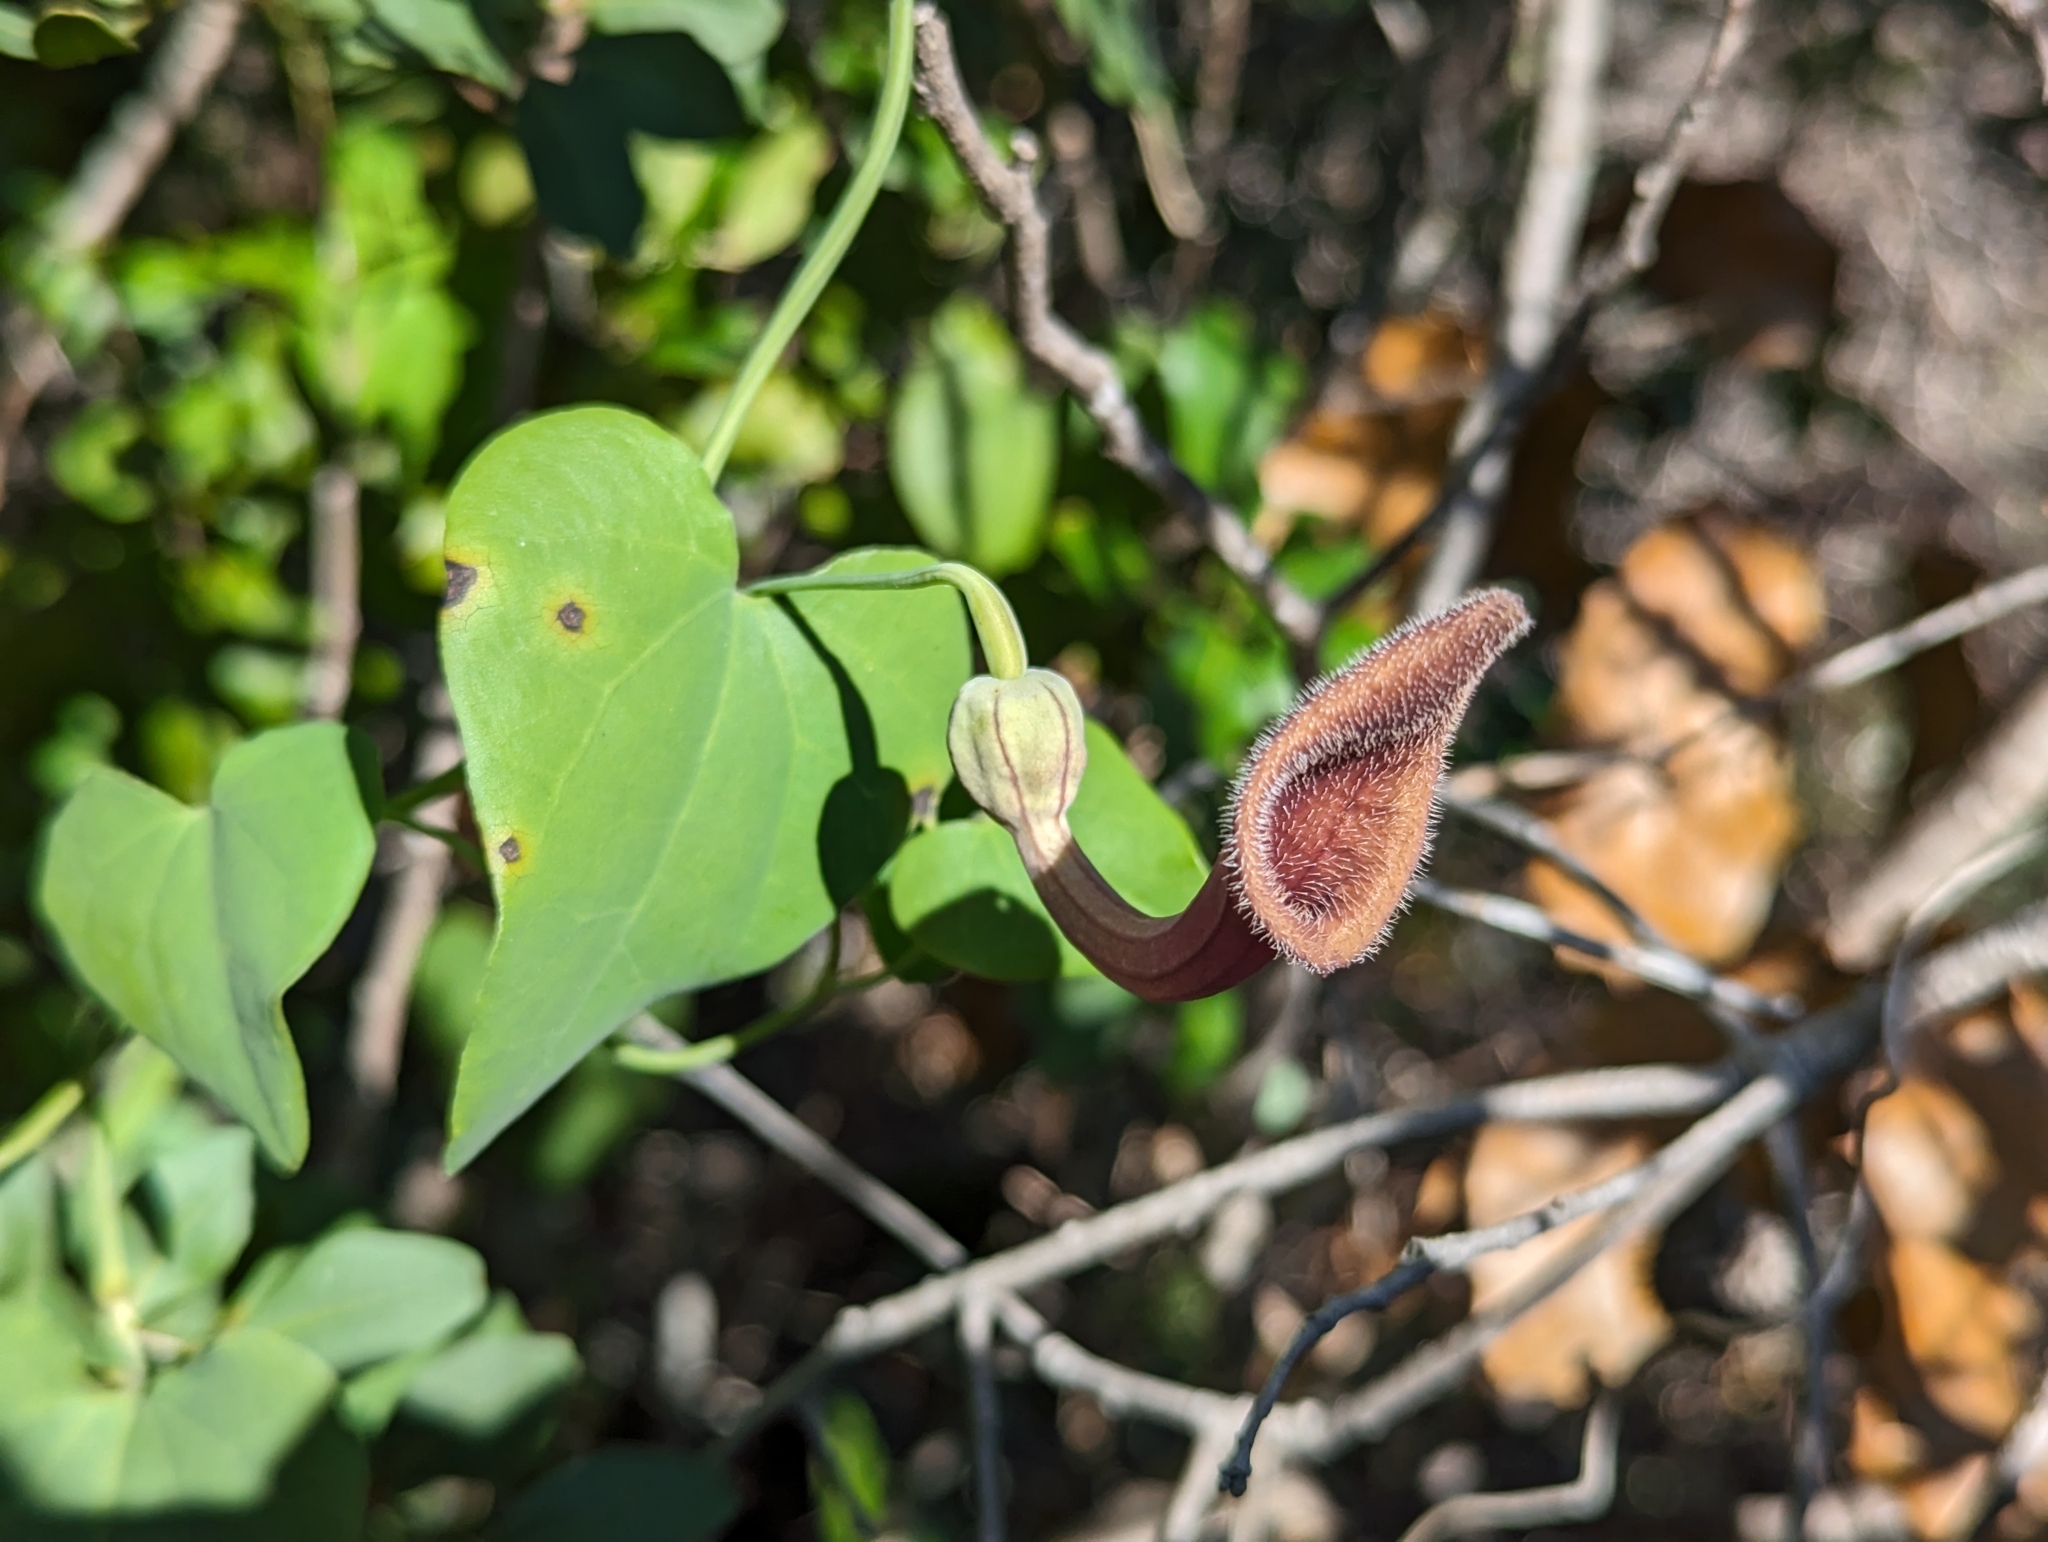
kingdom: Plantae
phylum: Tracheophyta
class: Magnoliopsida
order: Piperales
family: Aristolochiaceae
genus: Aristolochia
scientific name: Aristolochia baetica
